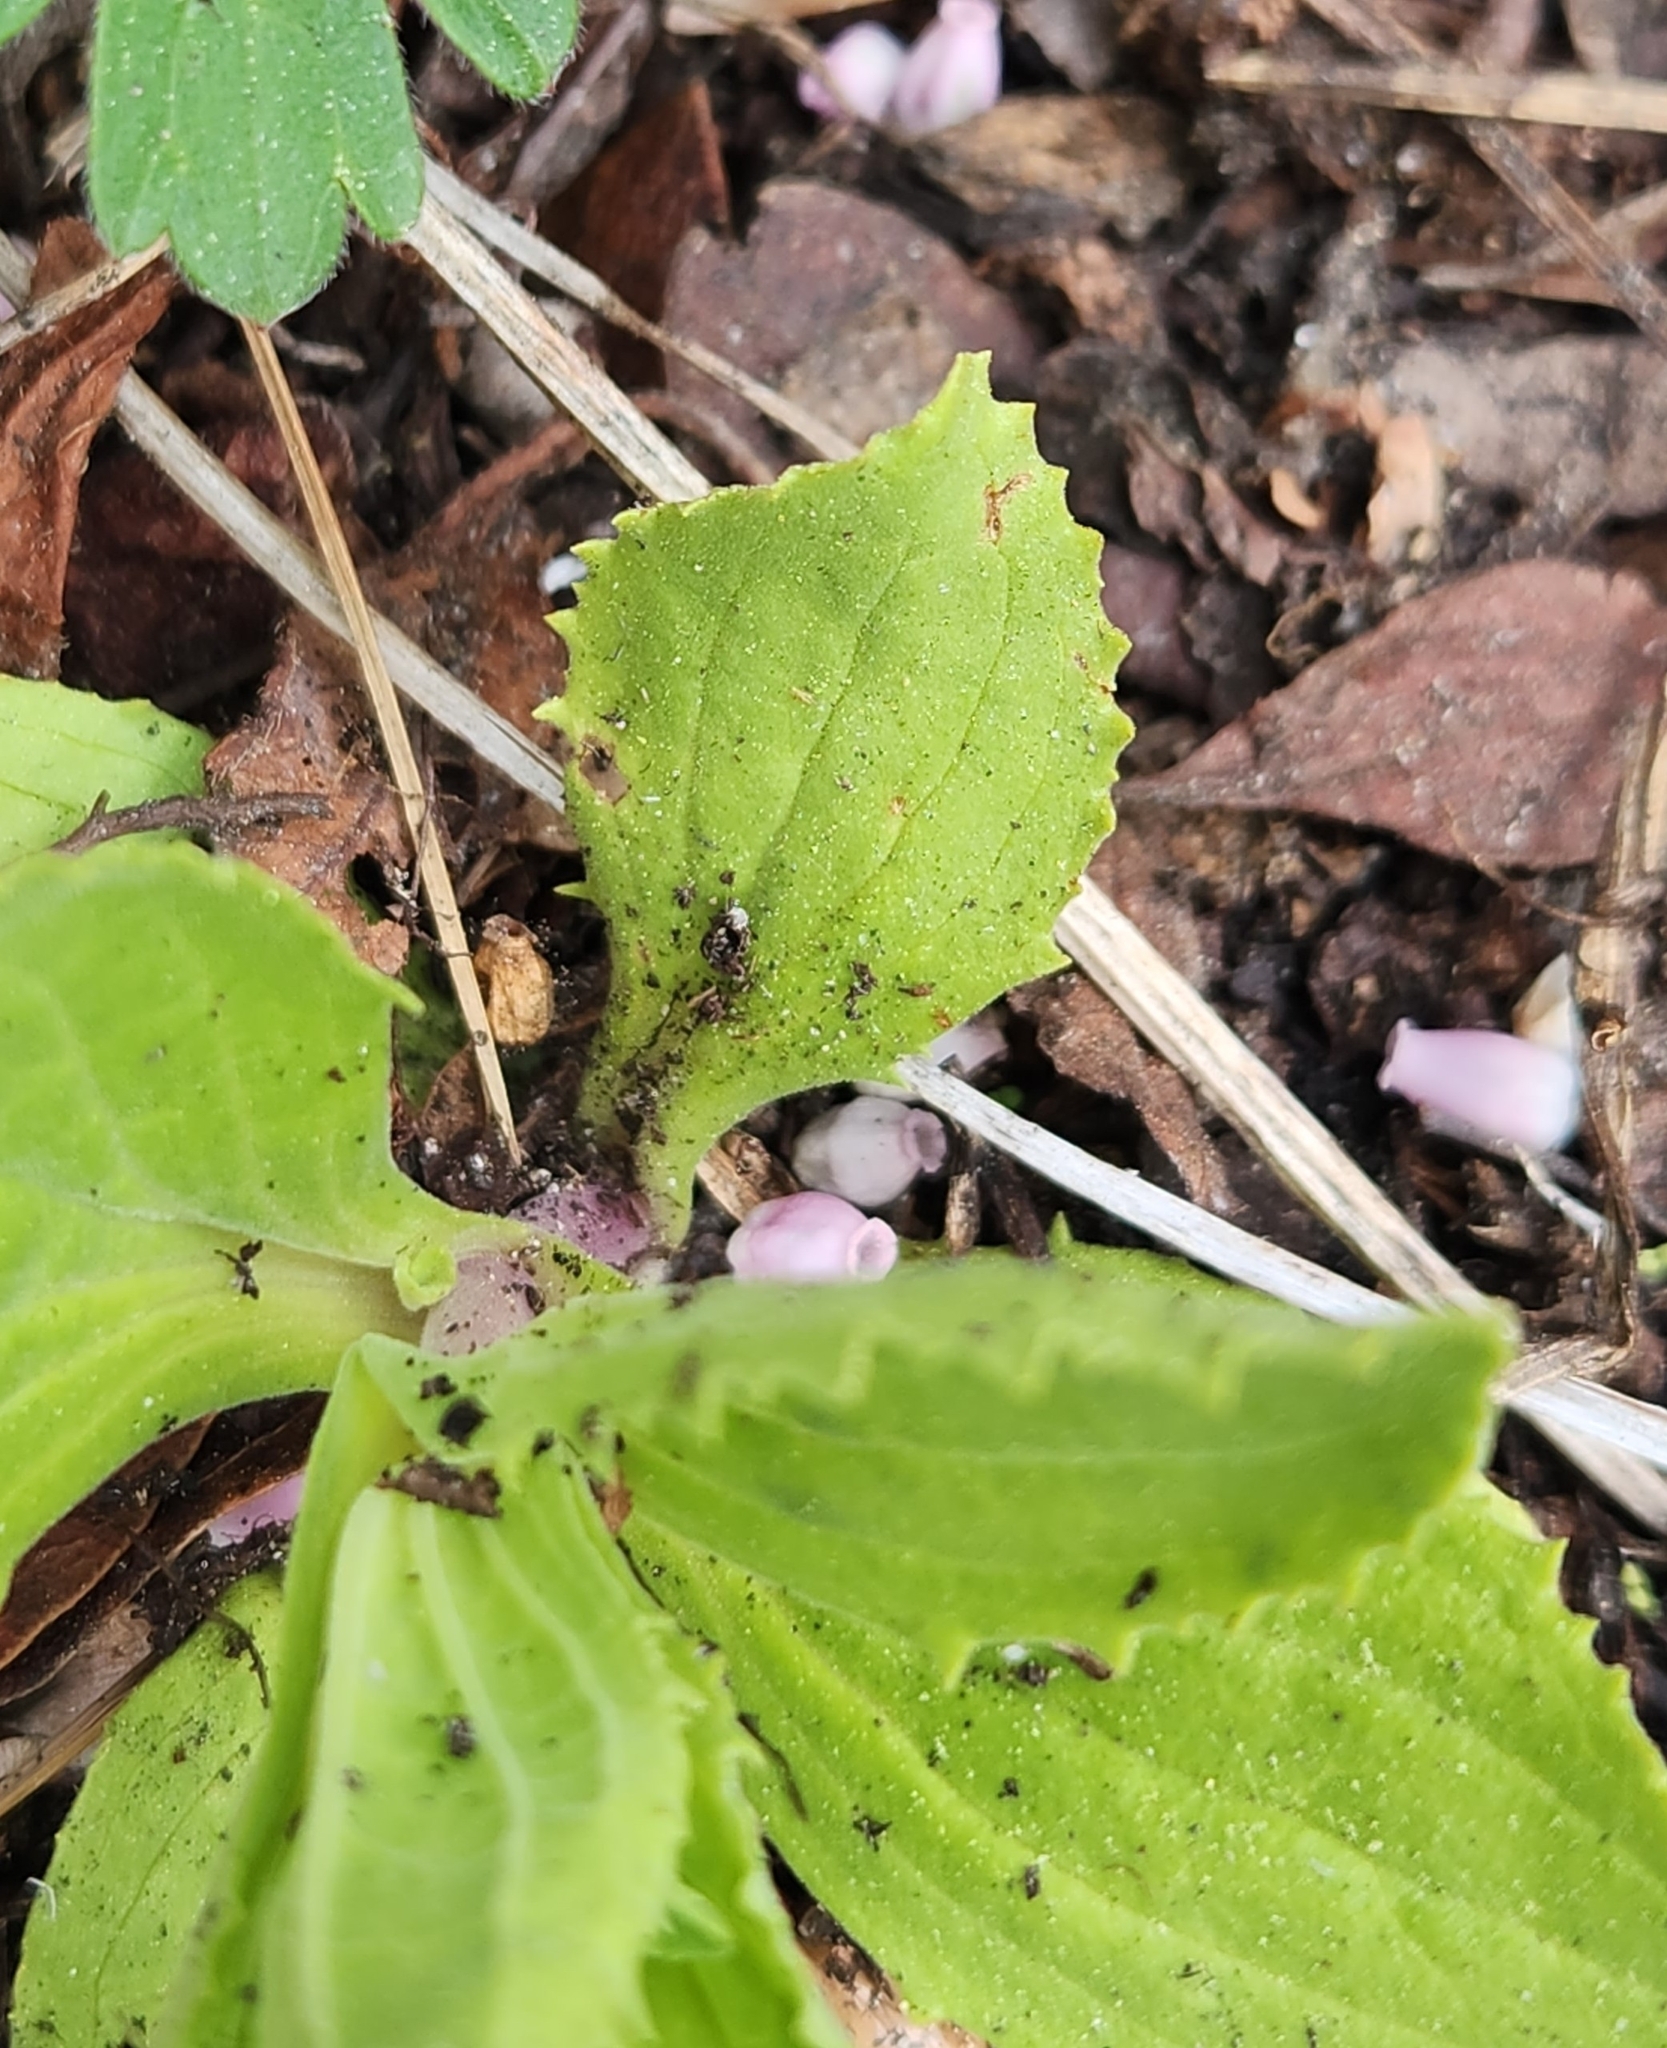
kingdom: Plantae
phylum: Tracheophyta
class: Magnoliopsida
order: Lamiales
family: Phrymaceae
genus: Erythranthe
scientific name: Erythranthe cardinalis
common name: Scarlet monkey-flower
